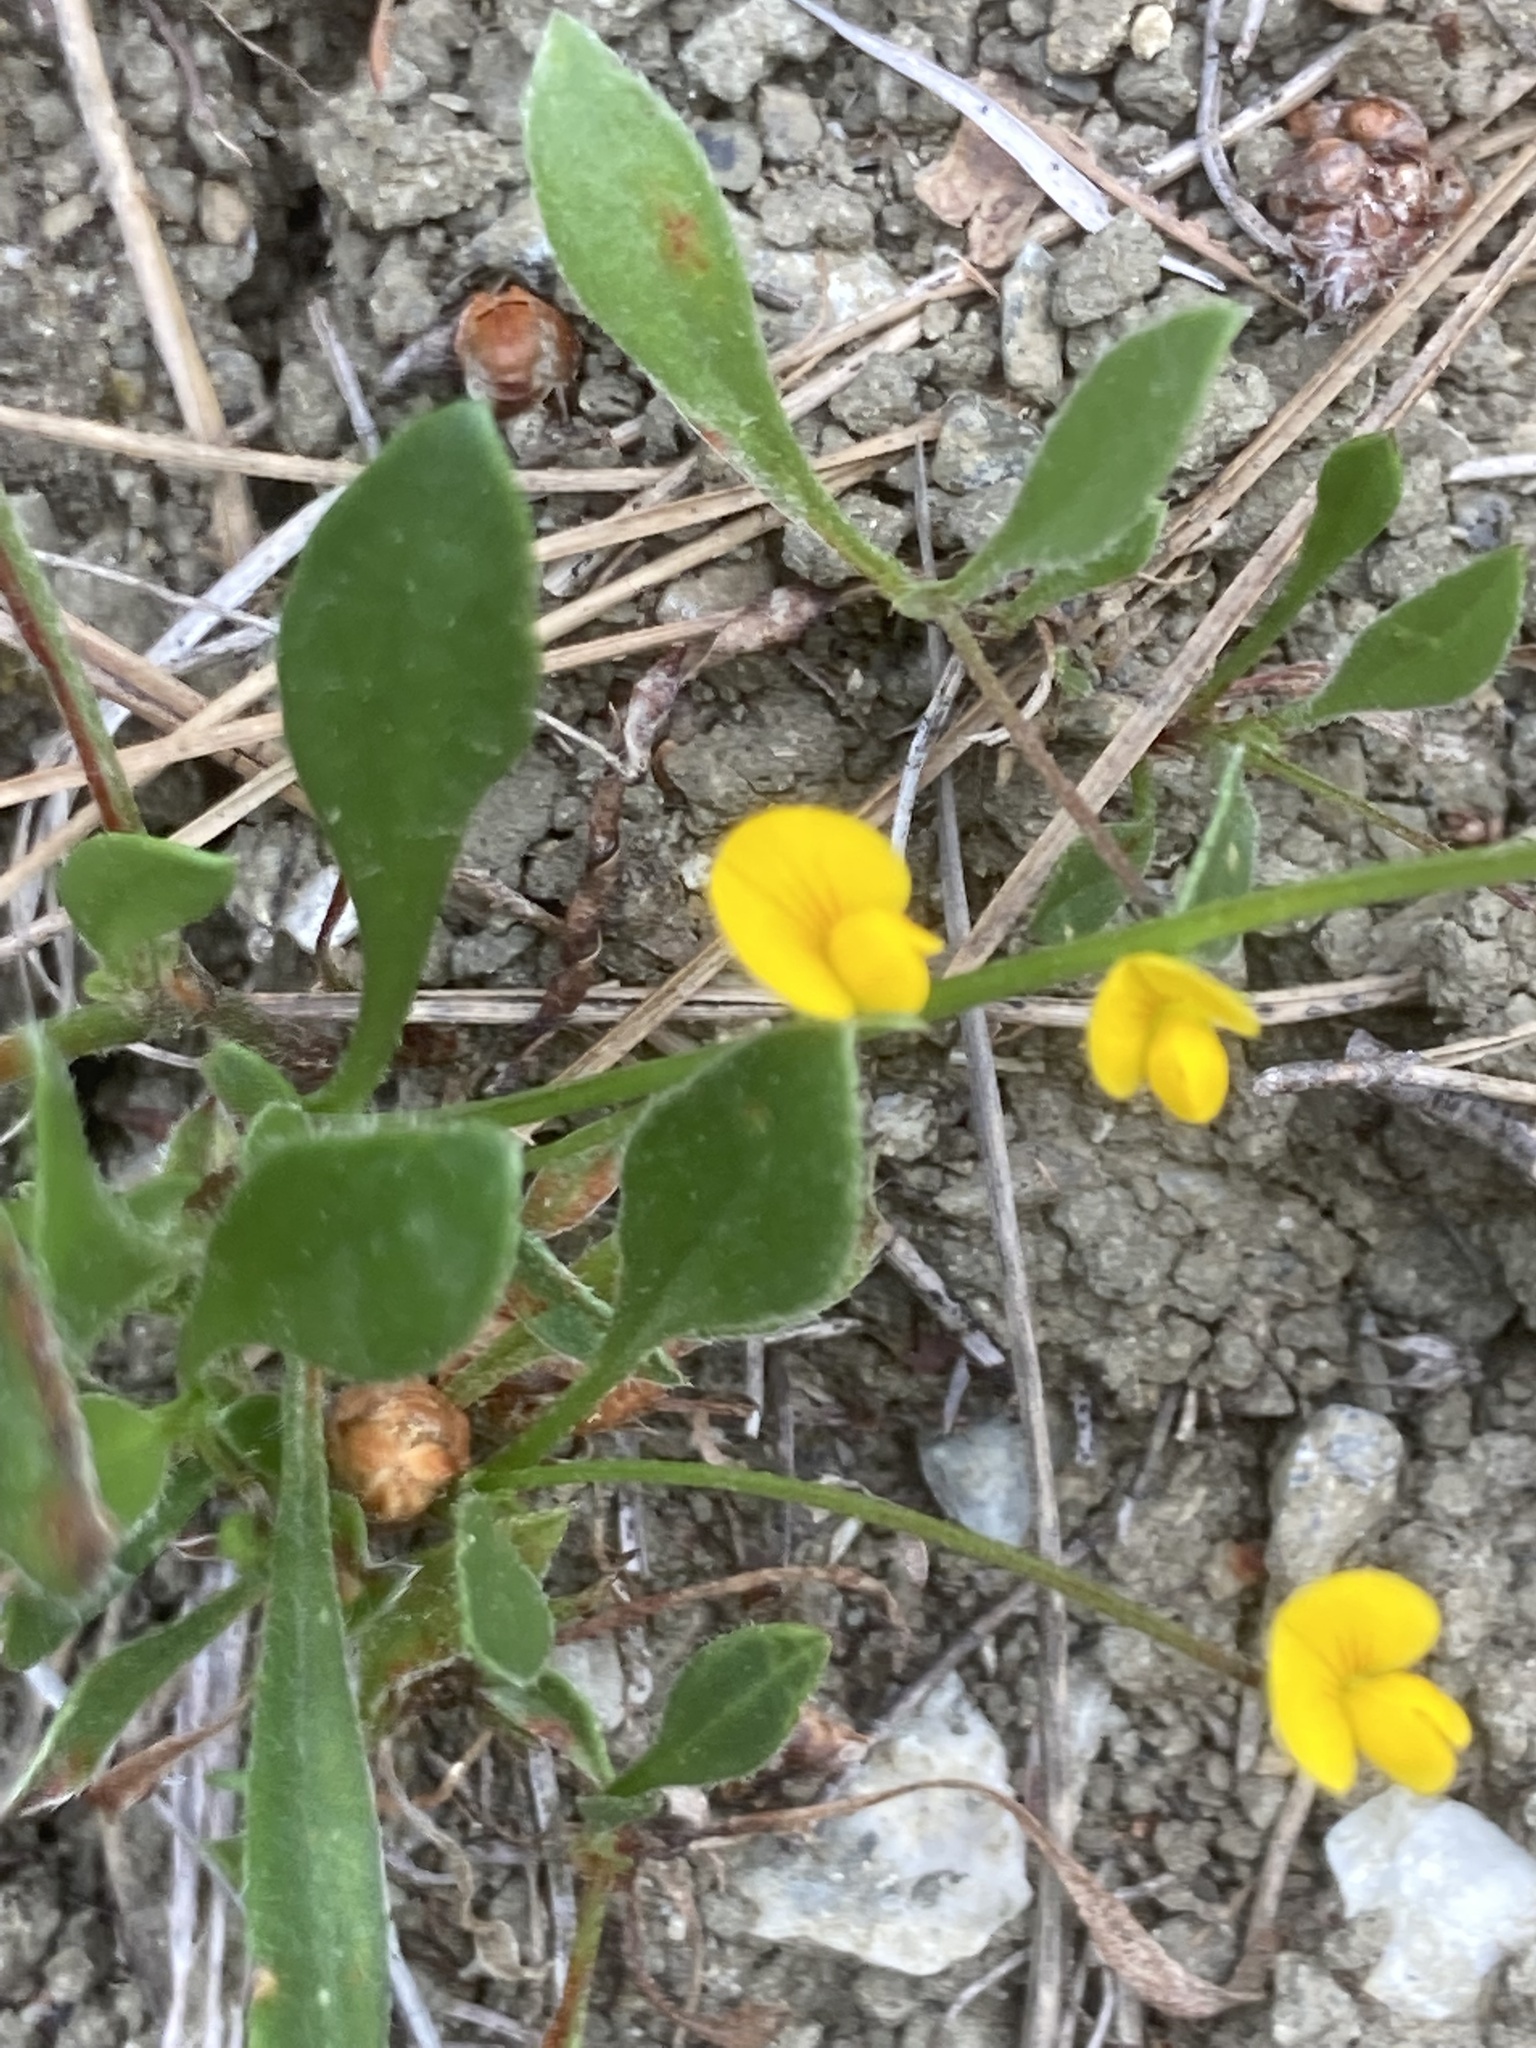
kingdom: Plantae
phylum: Tracheophyta
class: Magnoliopsida
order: Fabales
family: Fabaceae
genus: Scorpiurus
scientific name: Scorpiurus muricatus
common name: Caterpillar-plant
